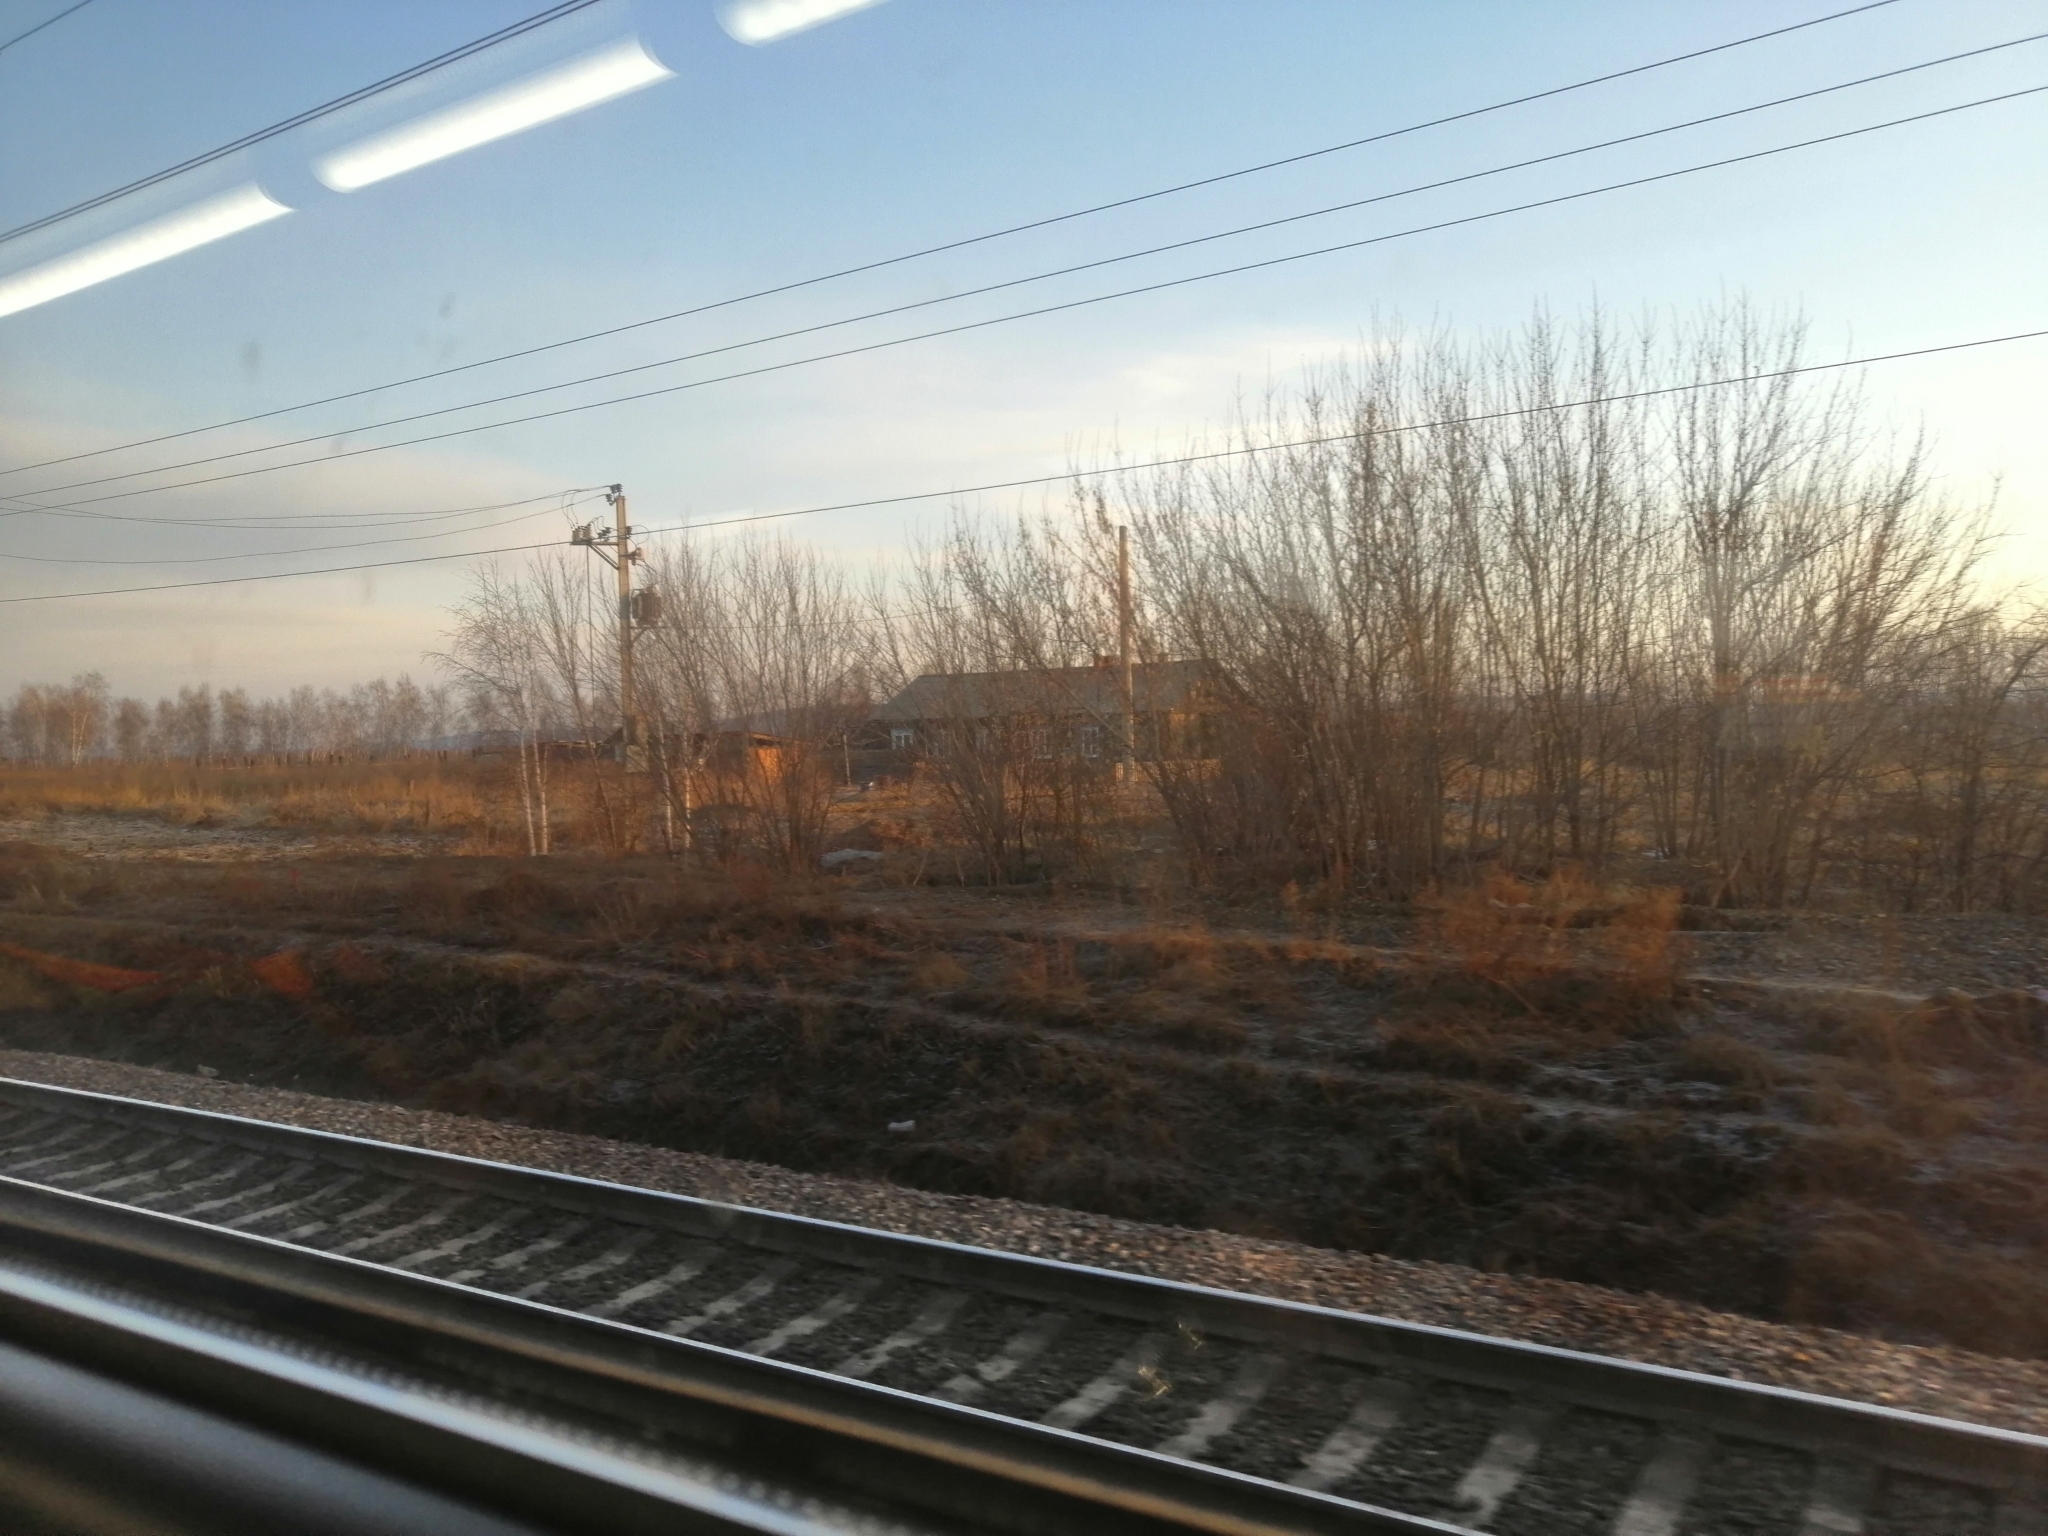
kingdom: Plantae
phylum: Tracheophyta
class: Magnoliopsida
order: Sapindales
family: Sapindaceae
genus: Acer
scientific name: Acer negundo
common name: Ashleaf maple
